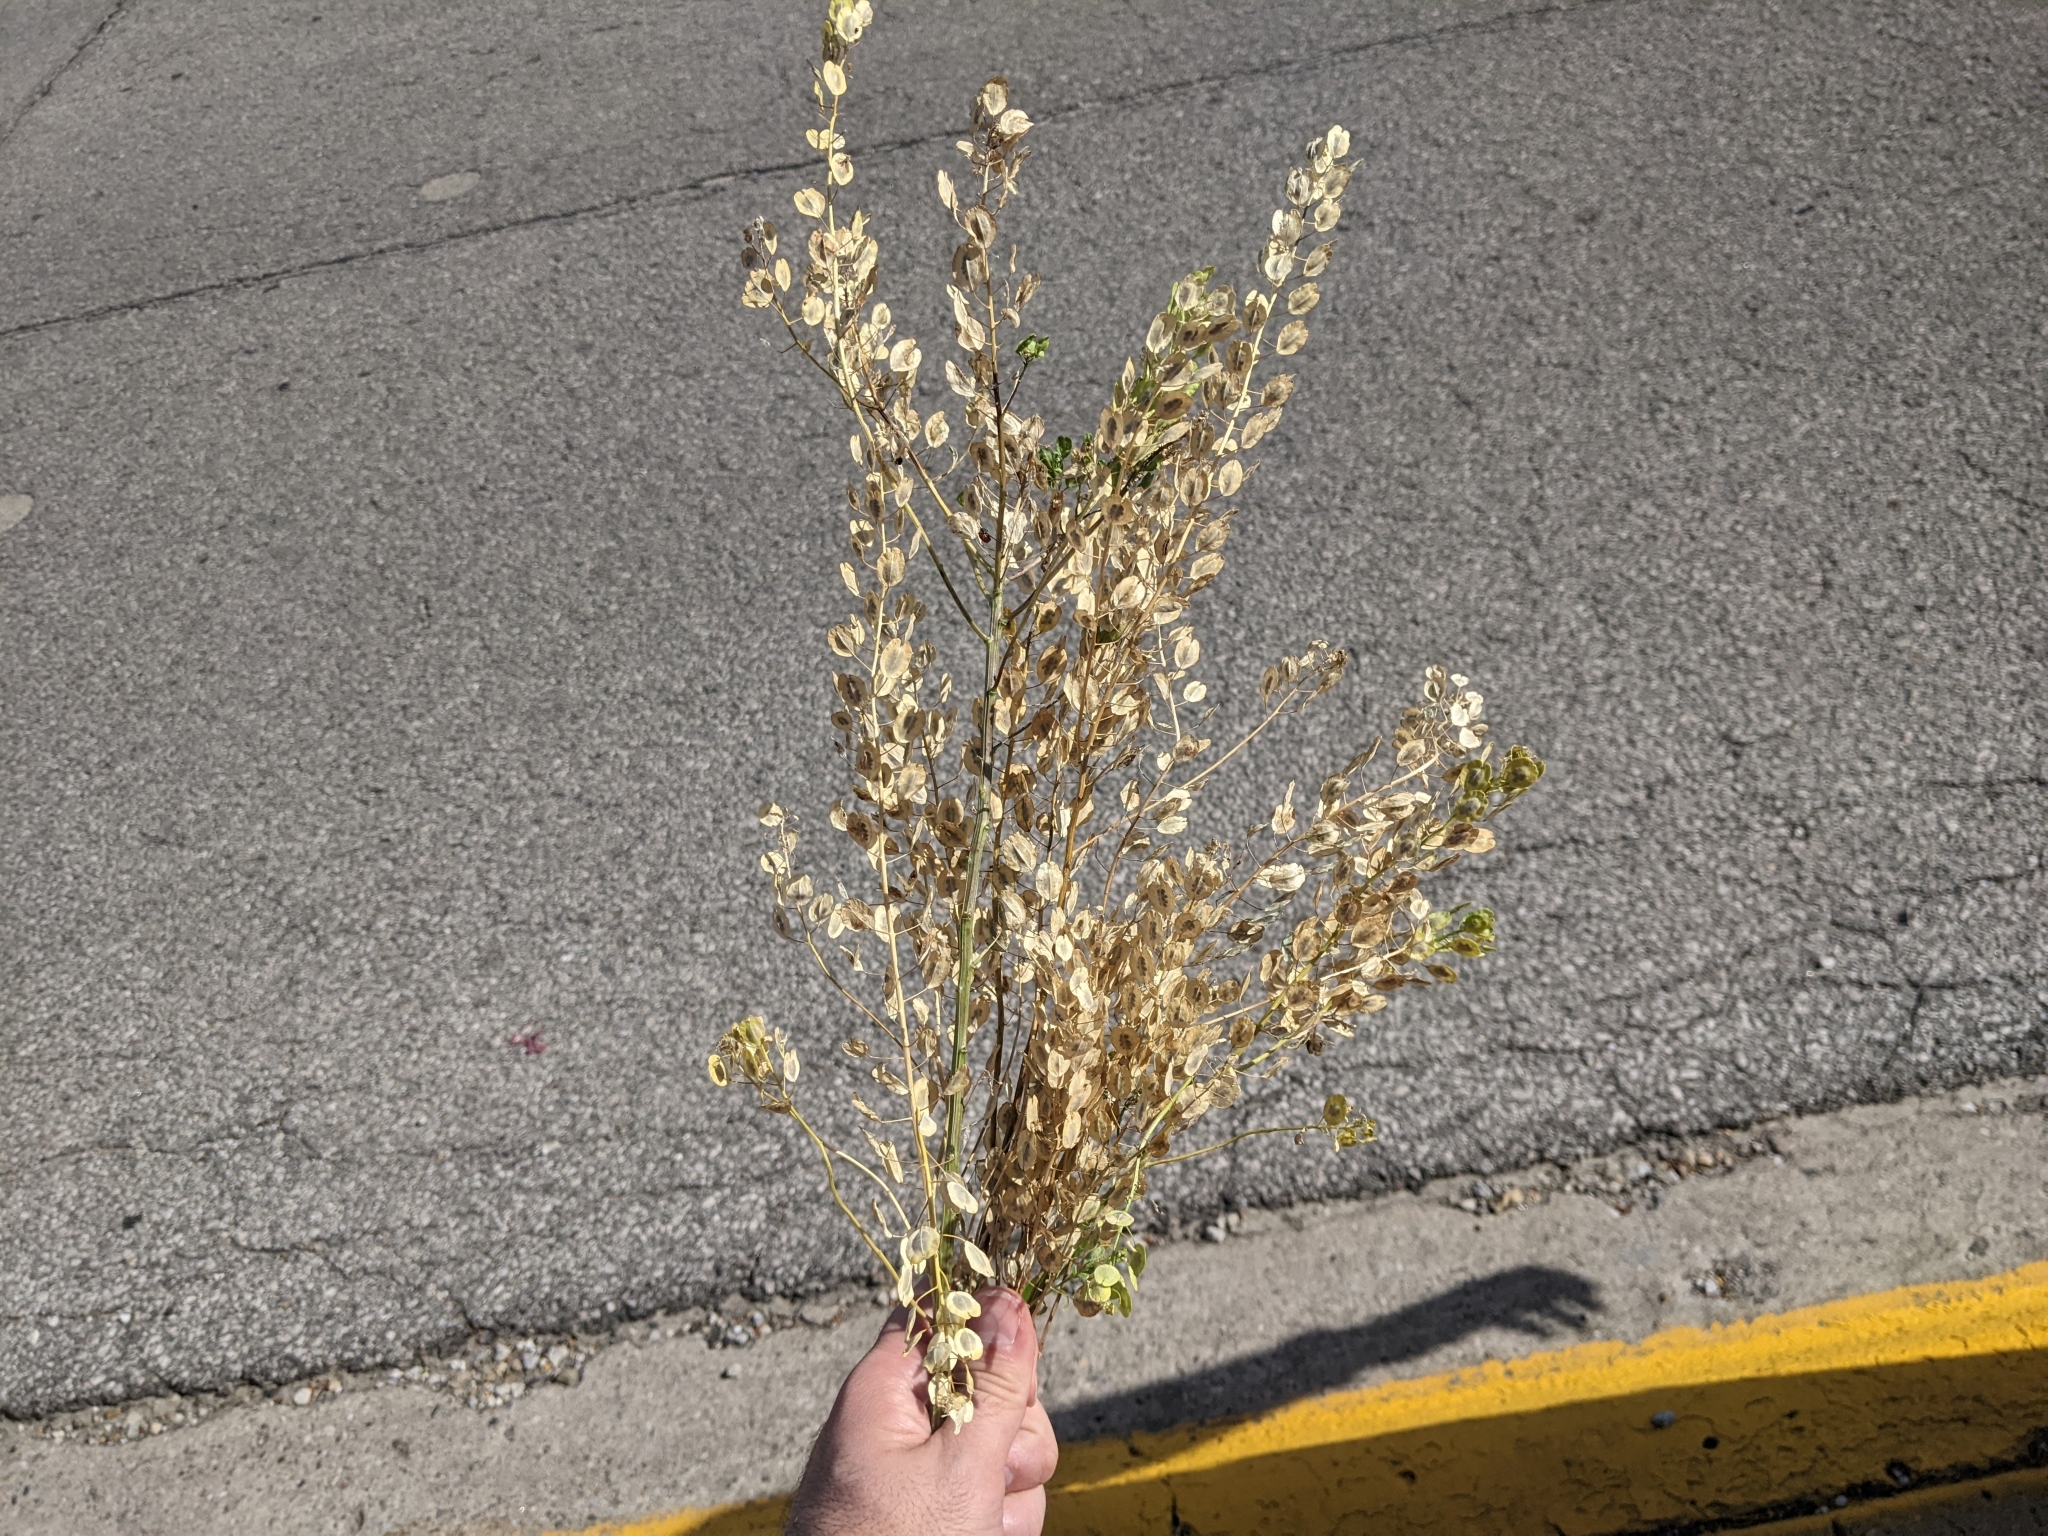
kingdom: Plantae
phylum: Tracheophyta
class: Magnoliopsida
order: Brassicales
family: Brassicaceae
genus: Thlaspi
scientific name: Thlaspi arvense
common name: Field pennycress
